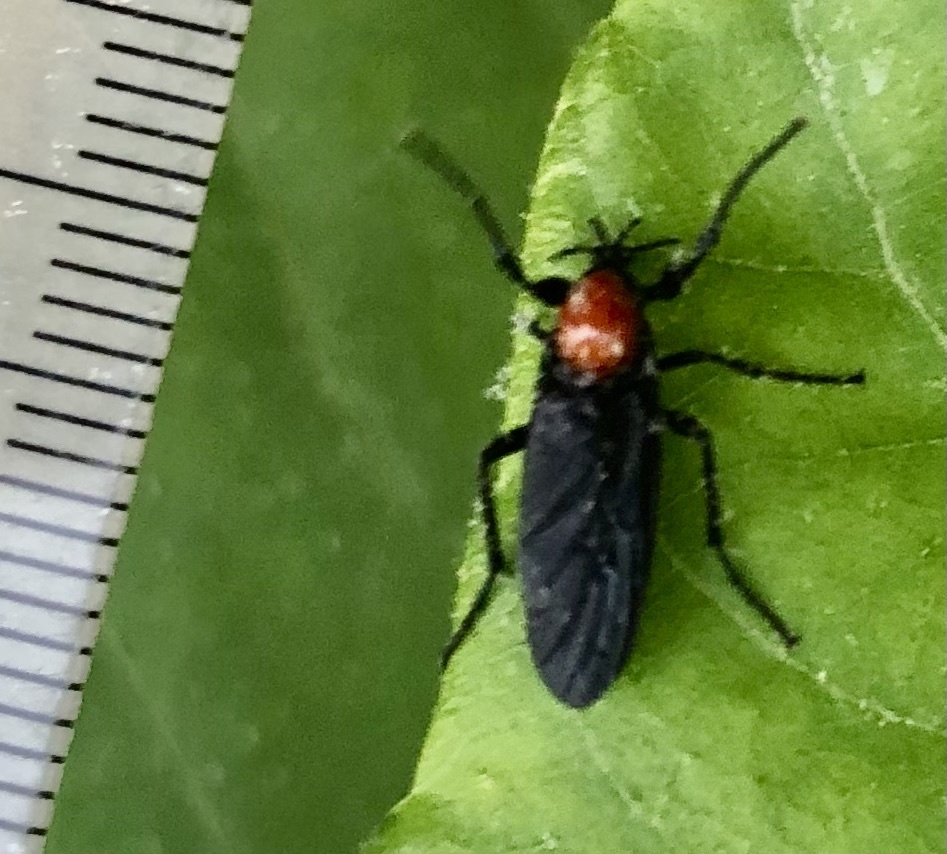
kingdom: Animalia
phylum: Arthropoda
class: Insecta
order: Diptera
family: Bibionidae
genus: Bibio
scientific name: Bibio superfluus
